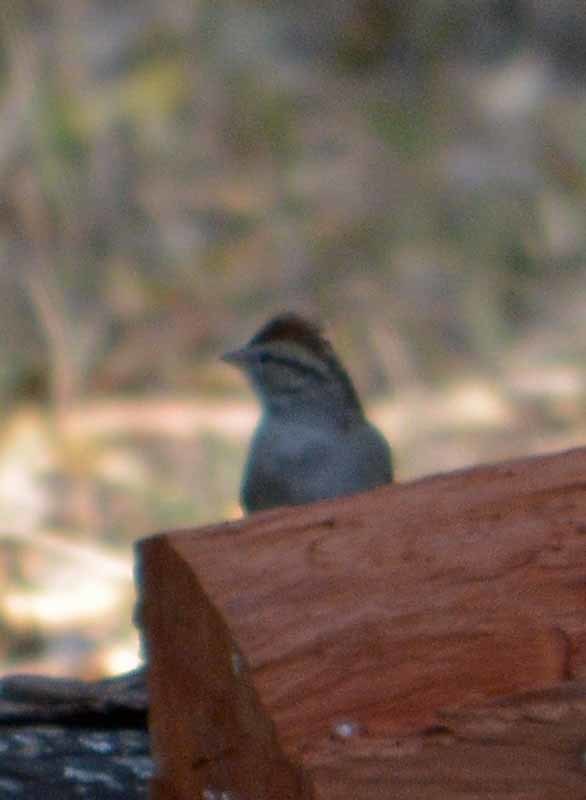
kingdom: Animalia
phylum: Chordata
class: Aves
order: Passeriformes
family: Passerellidae
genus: Spizella
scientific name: Spizella passerina
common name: Chipping sparrow
